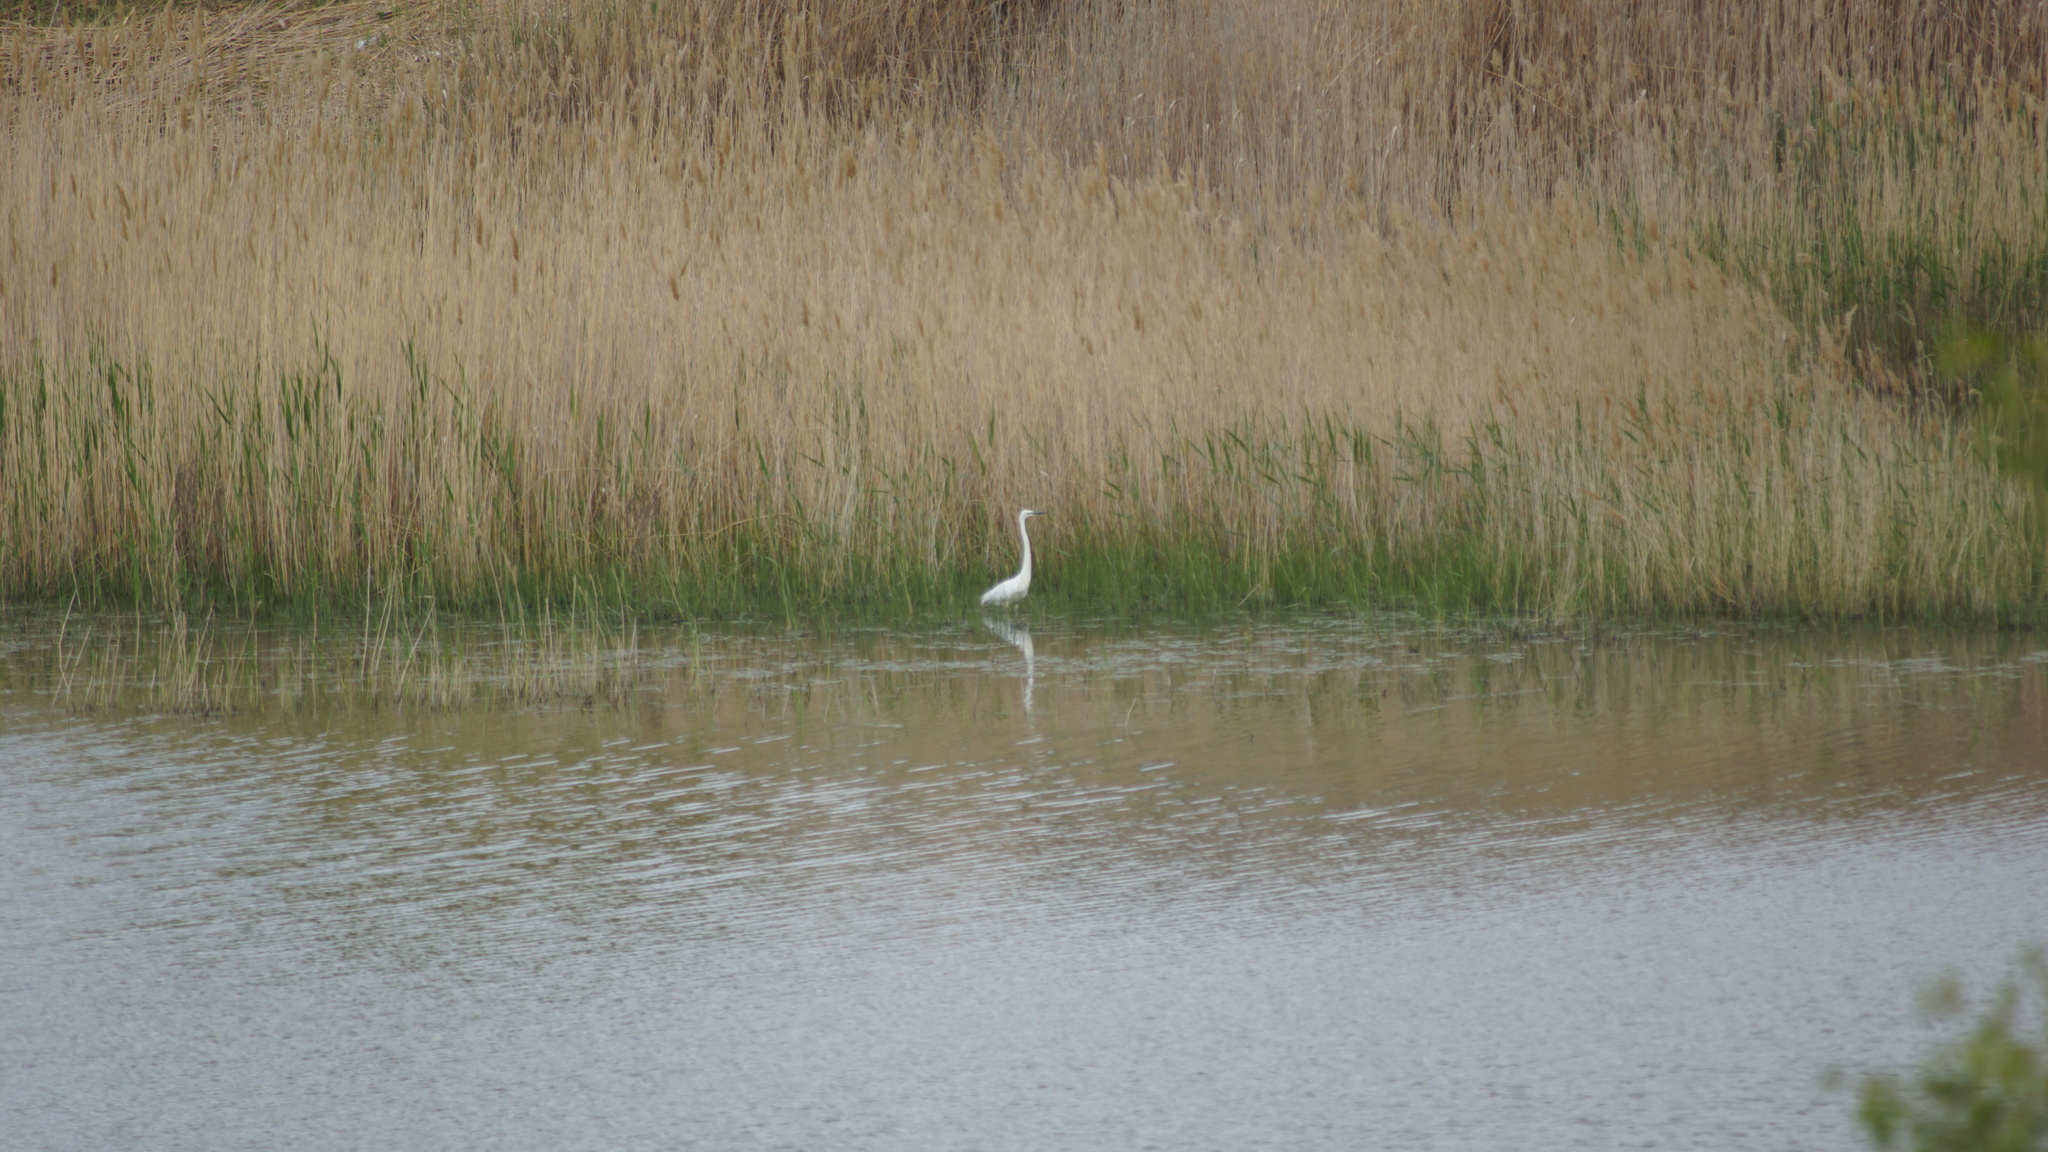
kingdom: Animalia
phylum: Chordata
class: Aves
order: Pelecaniformes
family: Ardeidae
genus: Egretta
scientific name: Egretta garzetta
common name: Little egret
